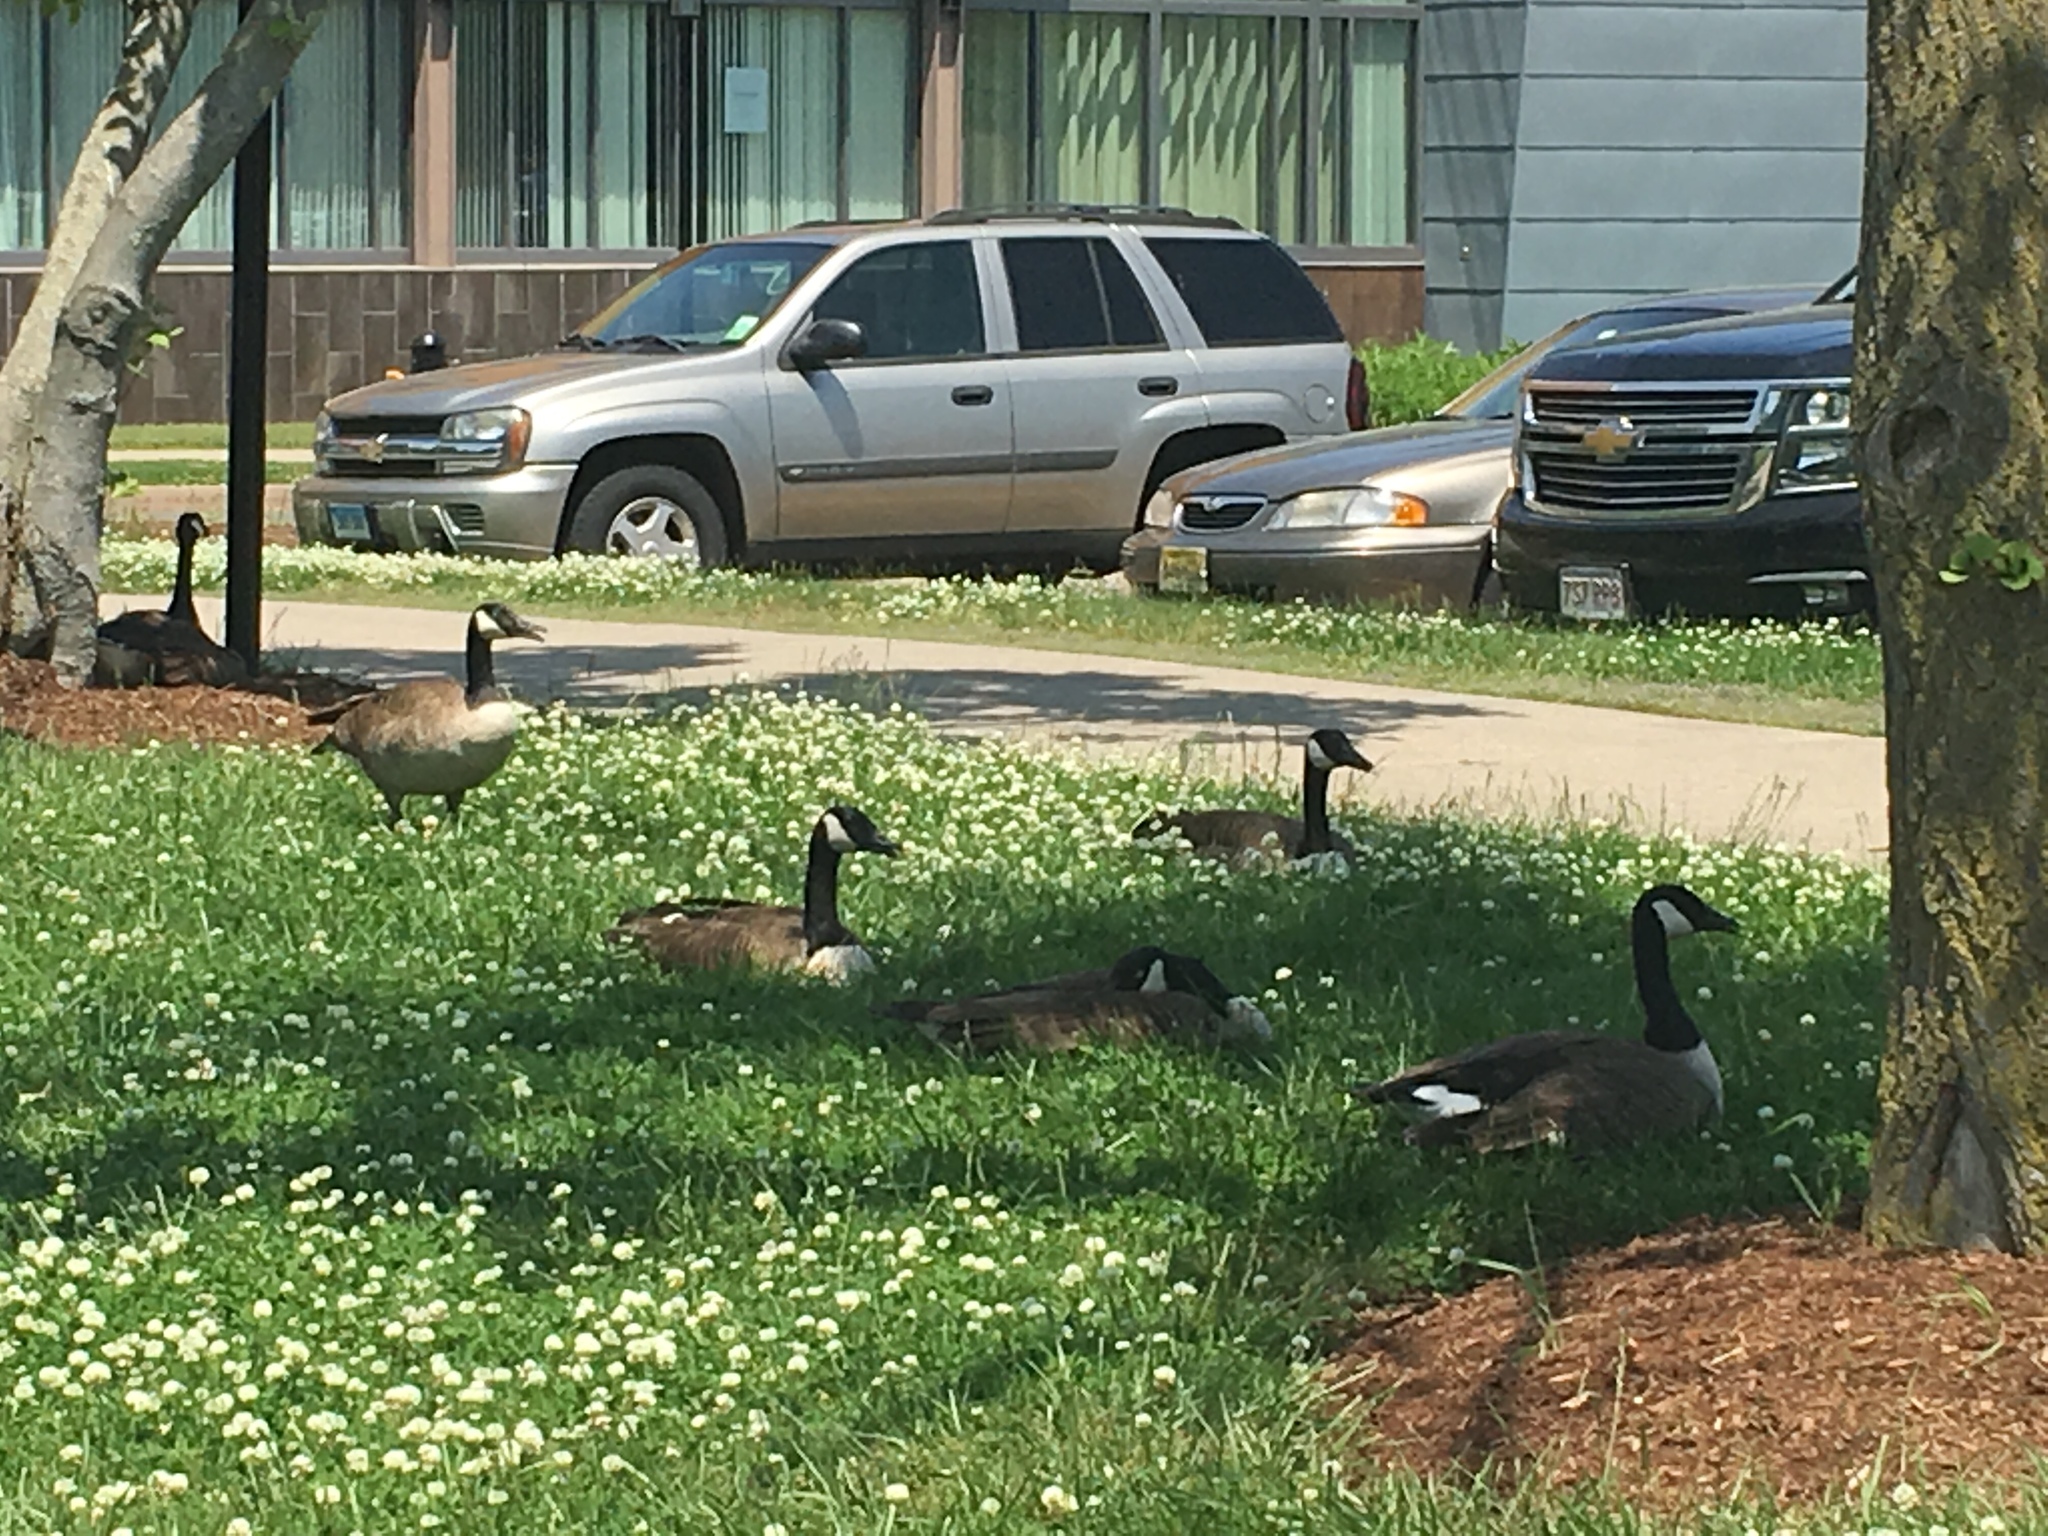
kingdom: Animalia
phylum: Chordata
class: Aves
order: Anseriformes
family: Anatidae
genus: Branta
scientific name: Branta canadensis
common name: Canada goose
